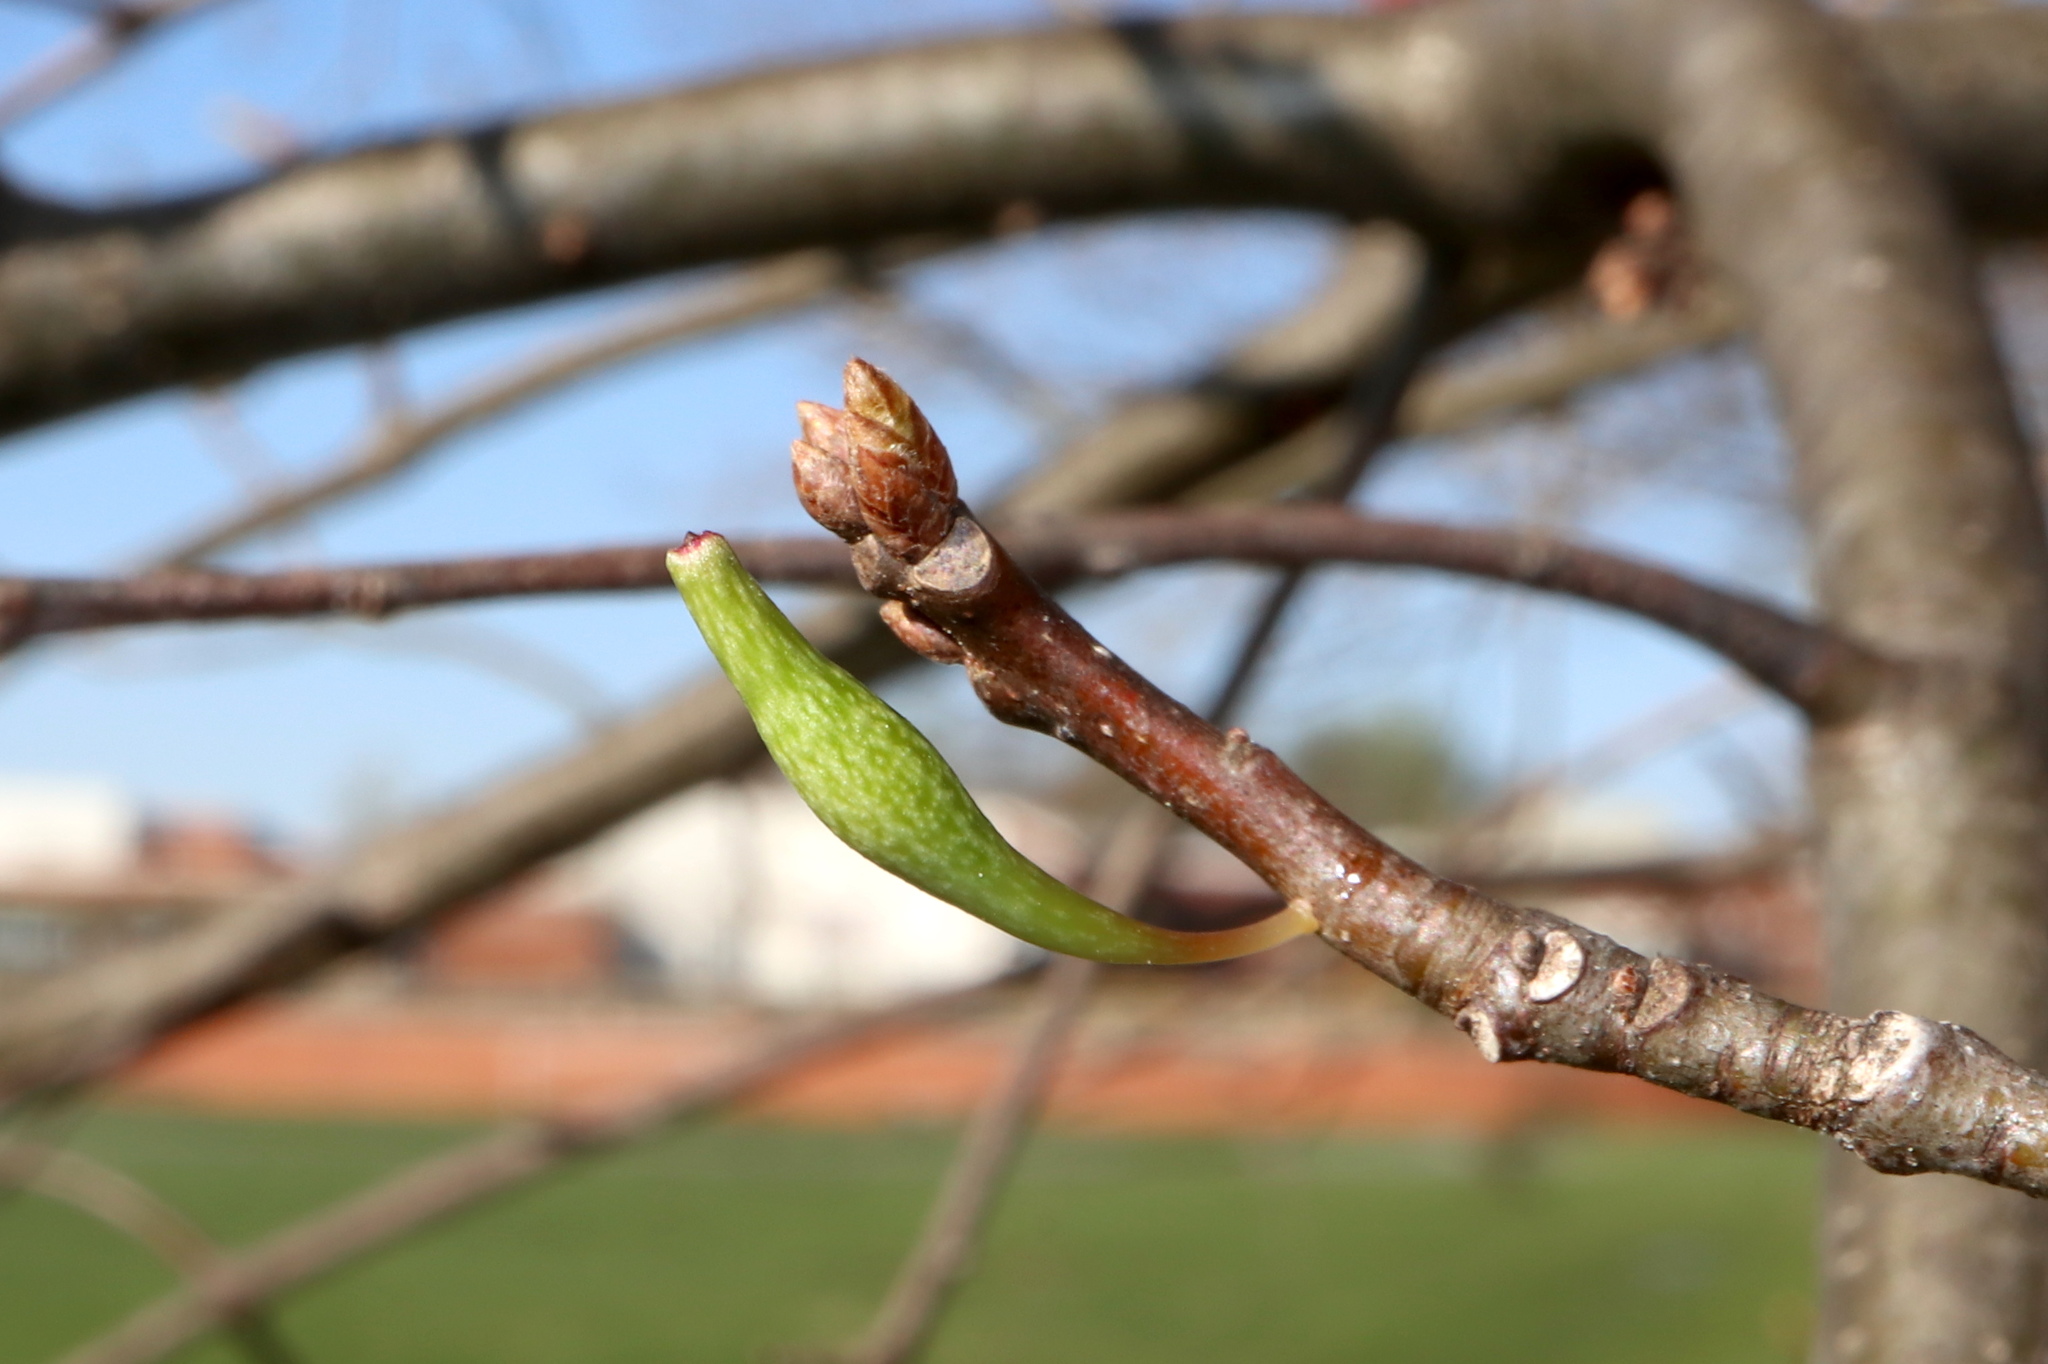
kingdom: Animalia
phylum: Arthropoda
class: Insecta
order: Hymenoptera
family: Cynipidae
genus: Callirhytis
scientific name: Callirhytis
